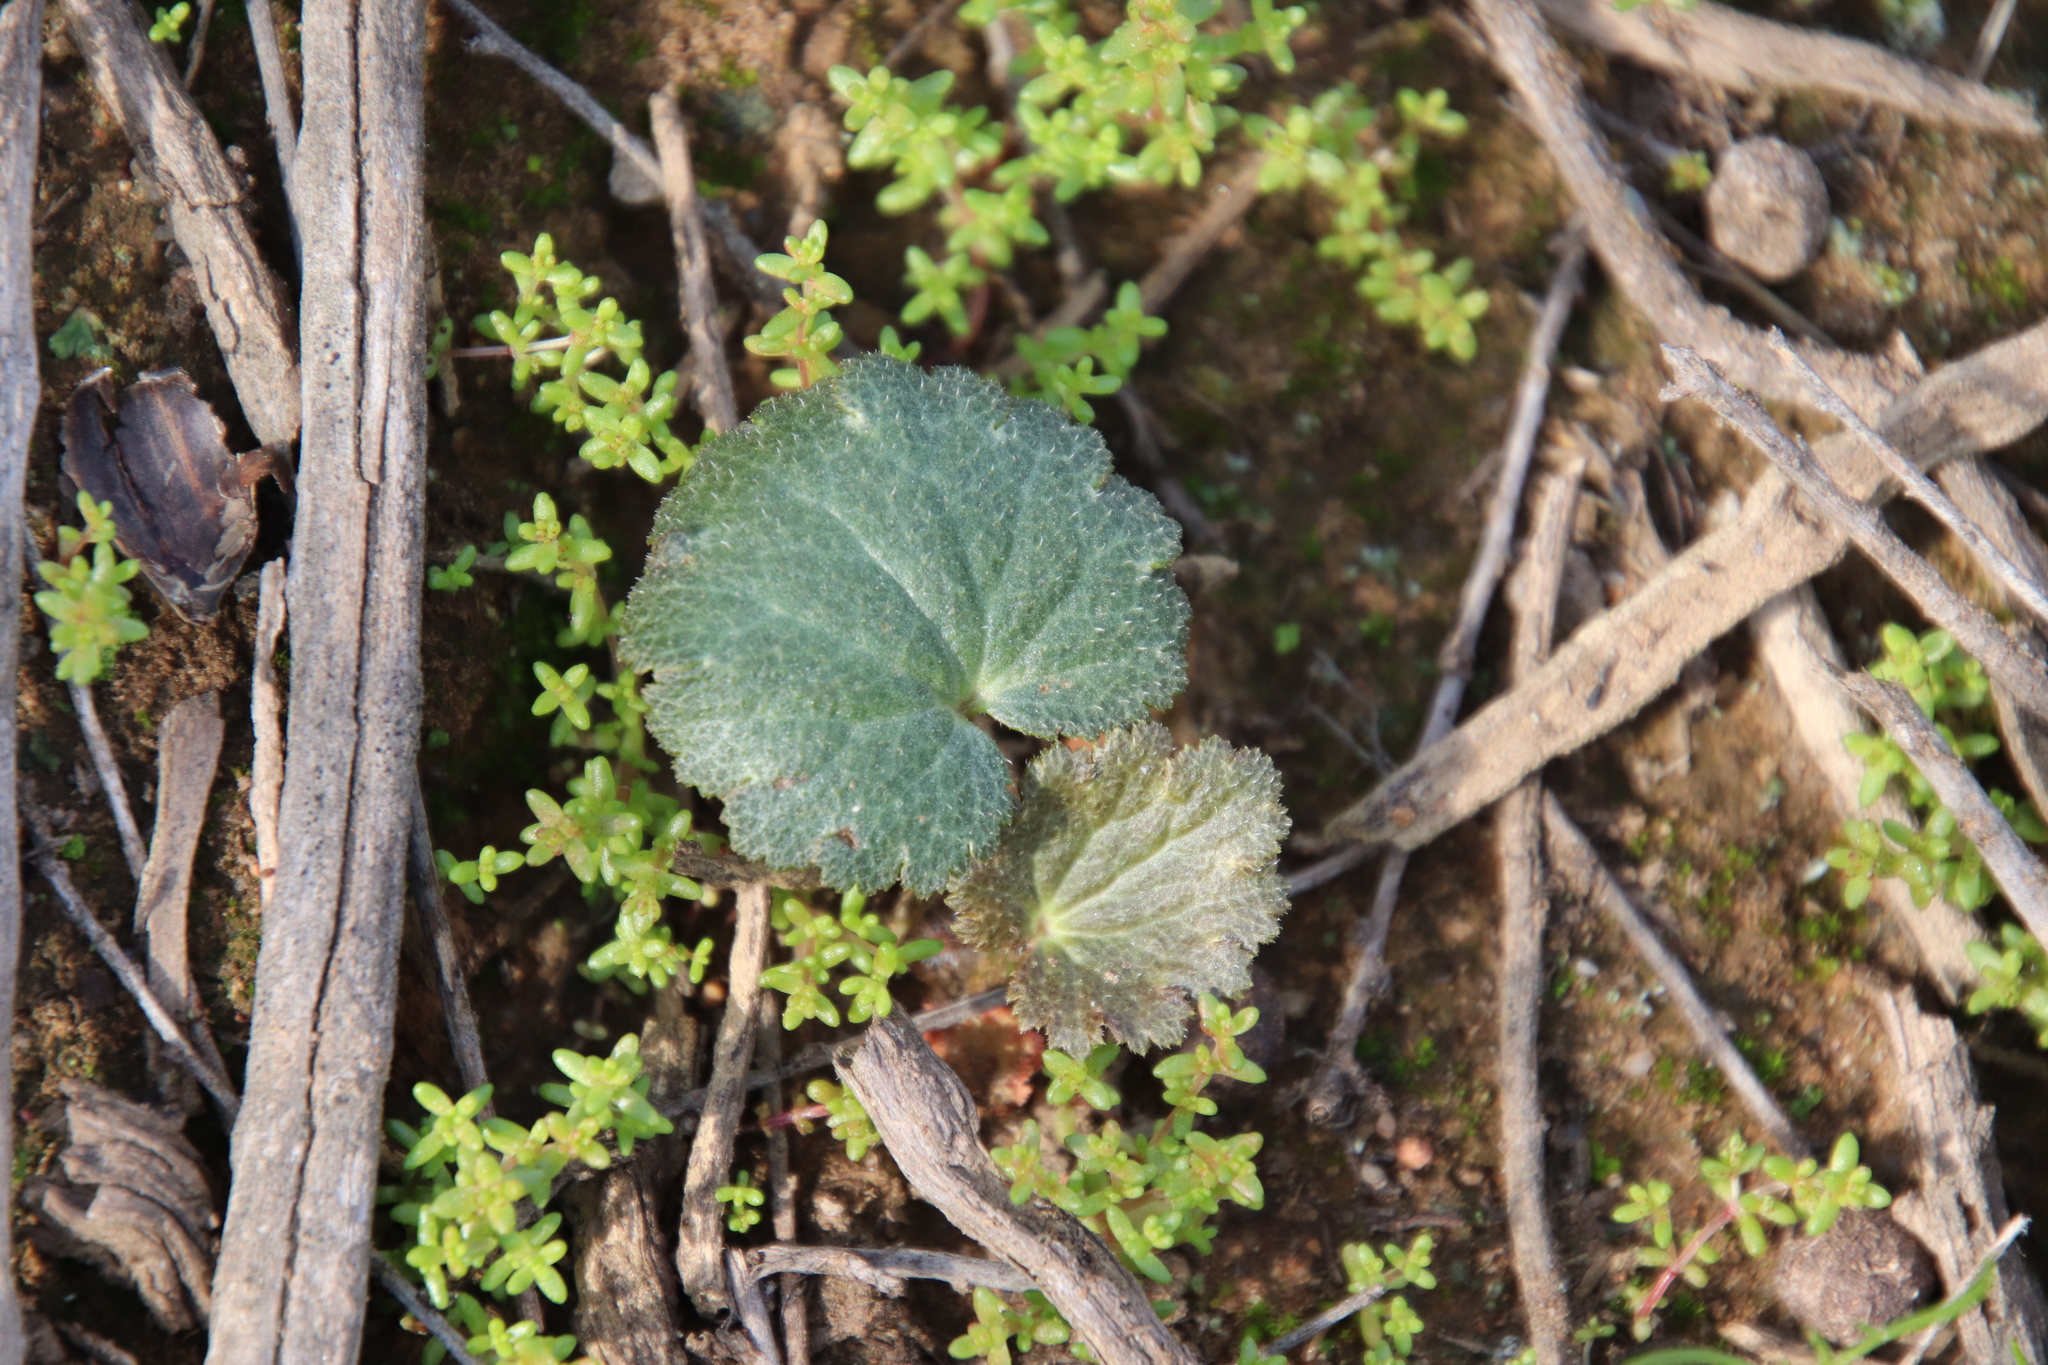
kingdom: Plantae
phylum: Tracheophyta
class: Magnoliopsida
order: Saxifragales
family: Saxifragaceae
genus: Jepsonia
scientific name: Jepsonia parryi
